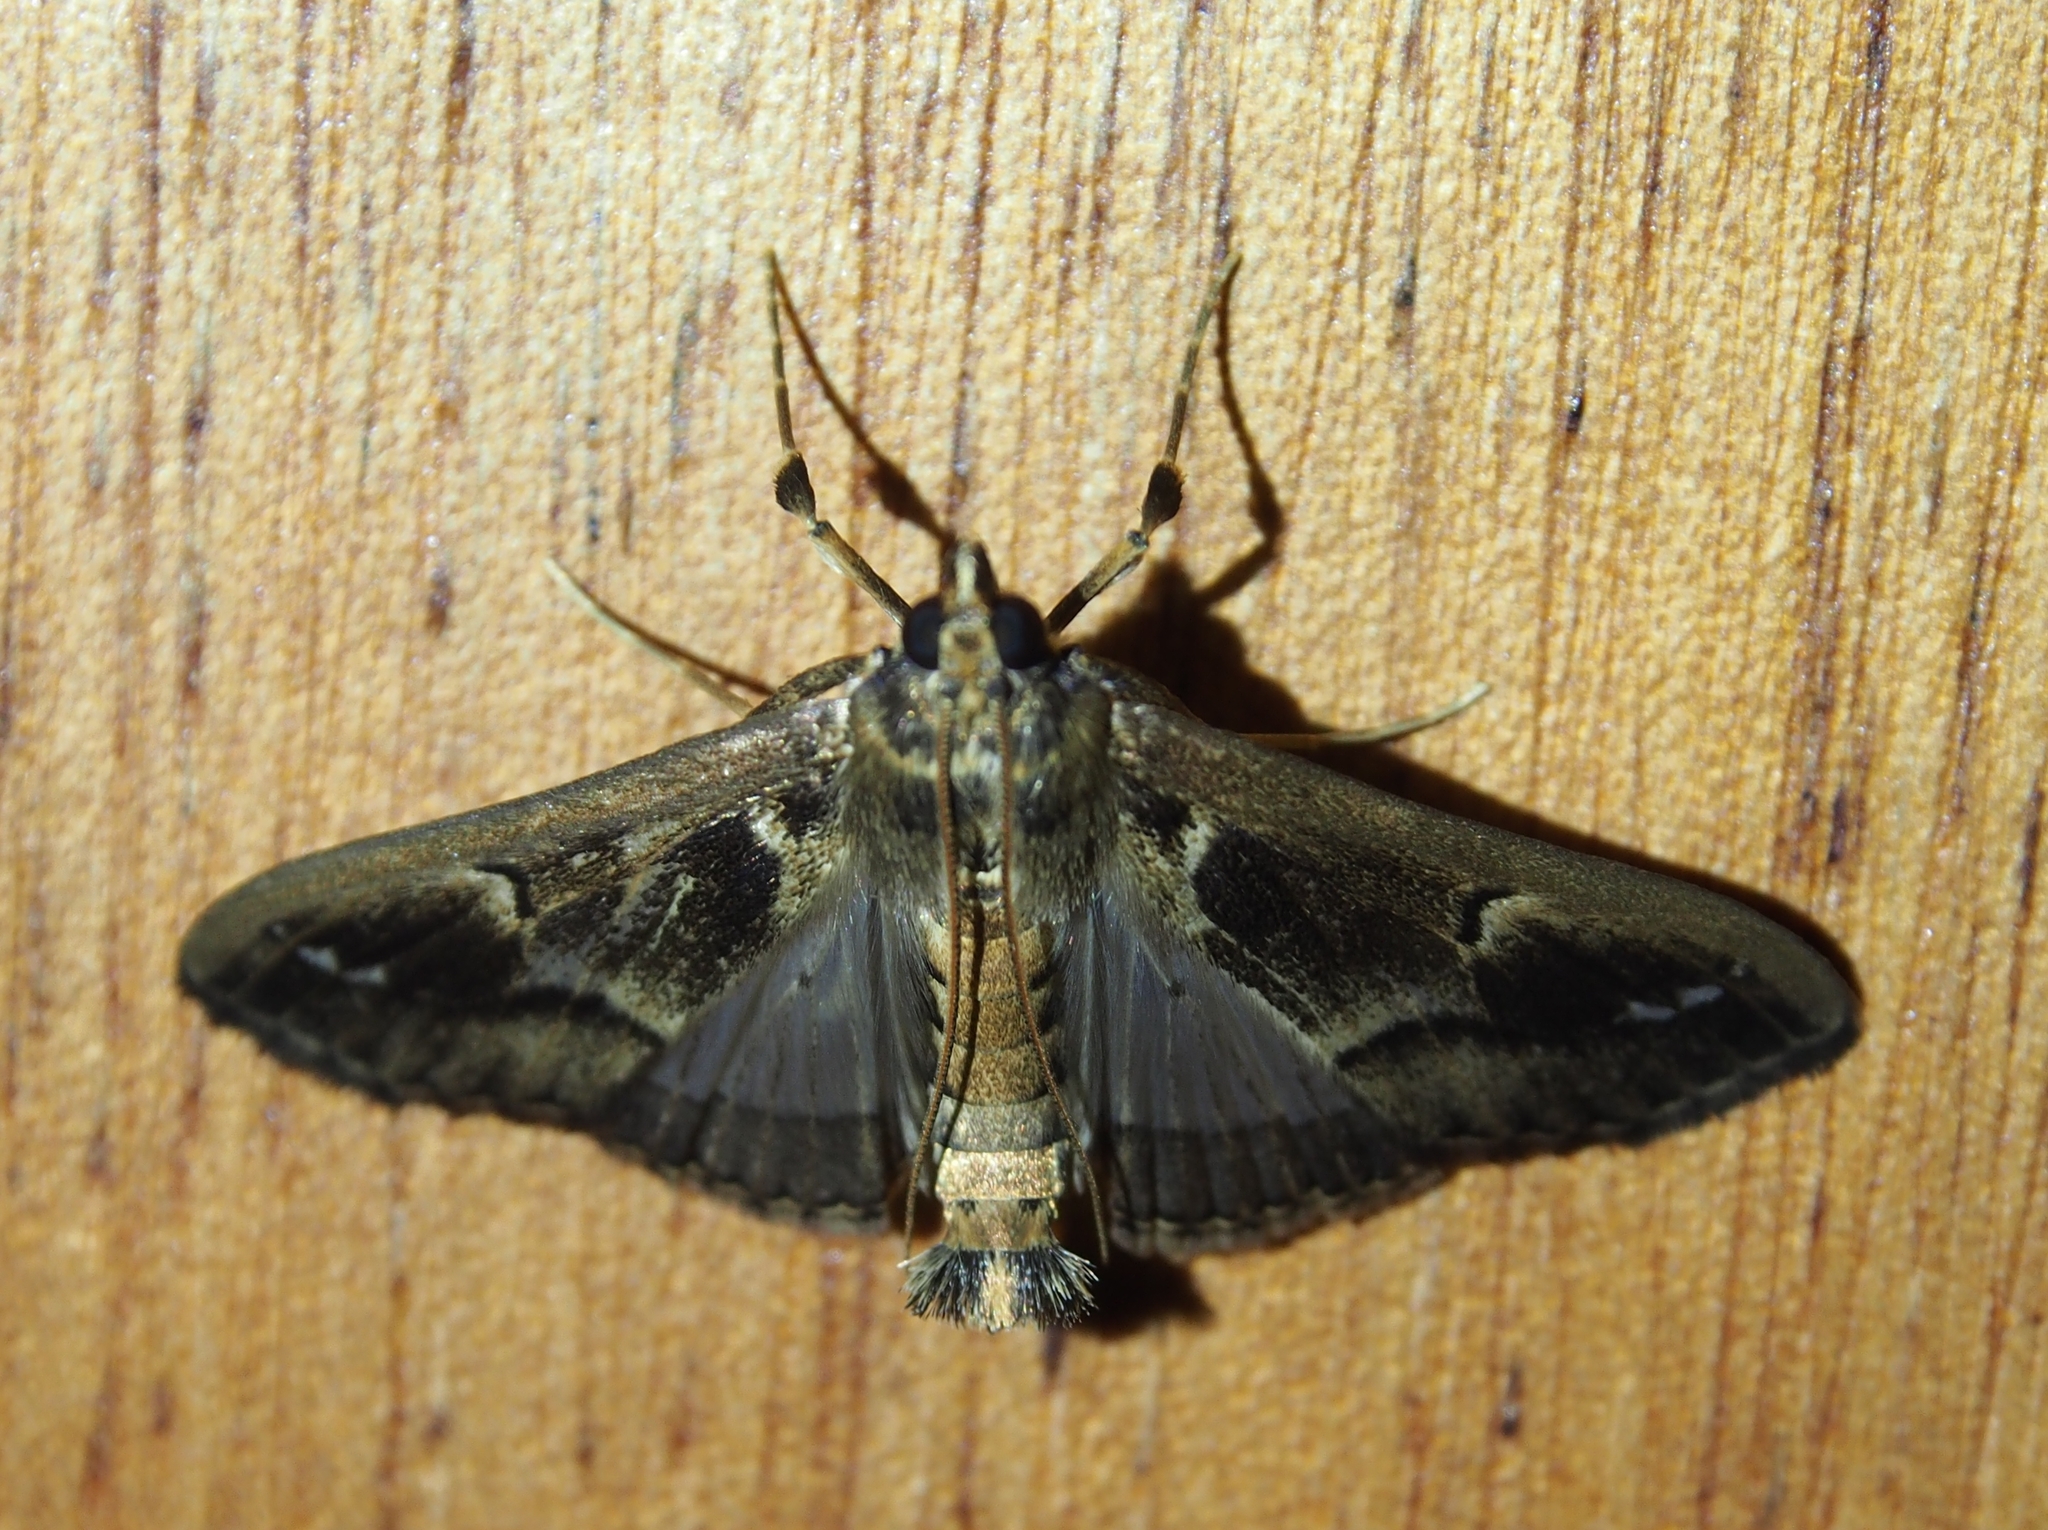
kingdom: Animalia
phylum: Arthropoda
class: Insecta
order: Lepidoptera
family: Crambidae
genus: Diaphania
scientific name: Diaphania costaricalis
